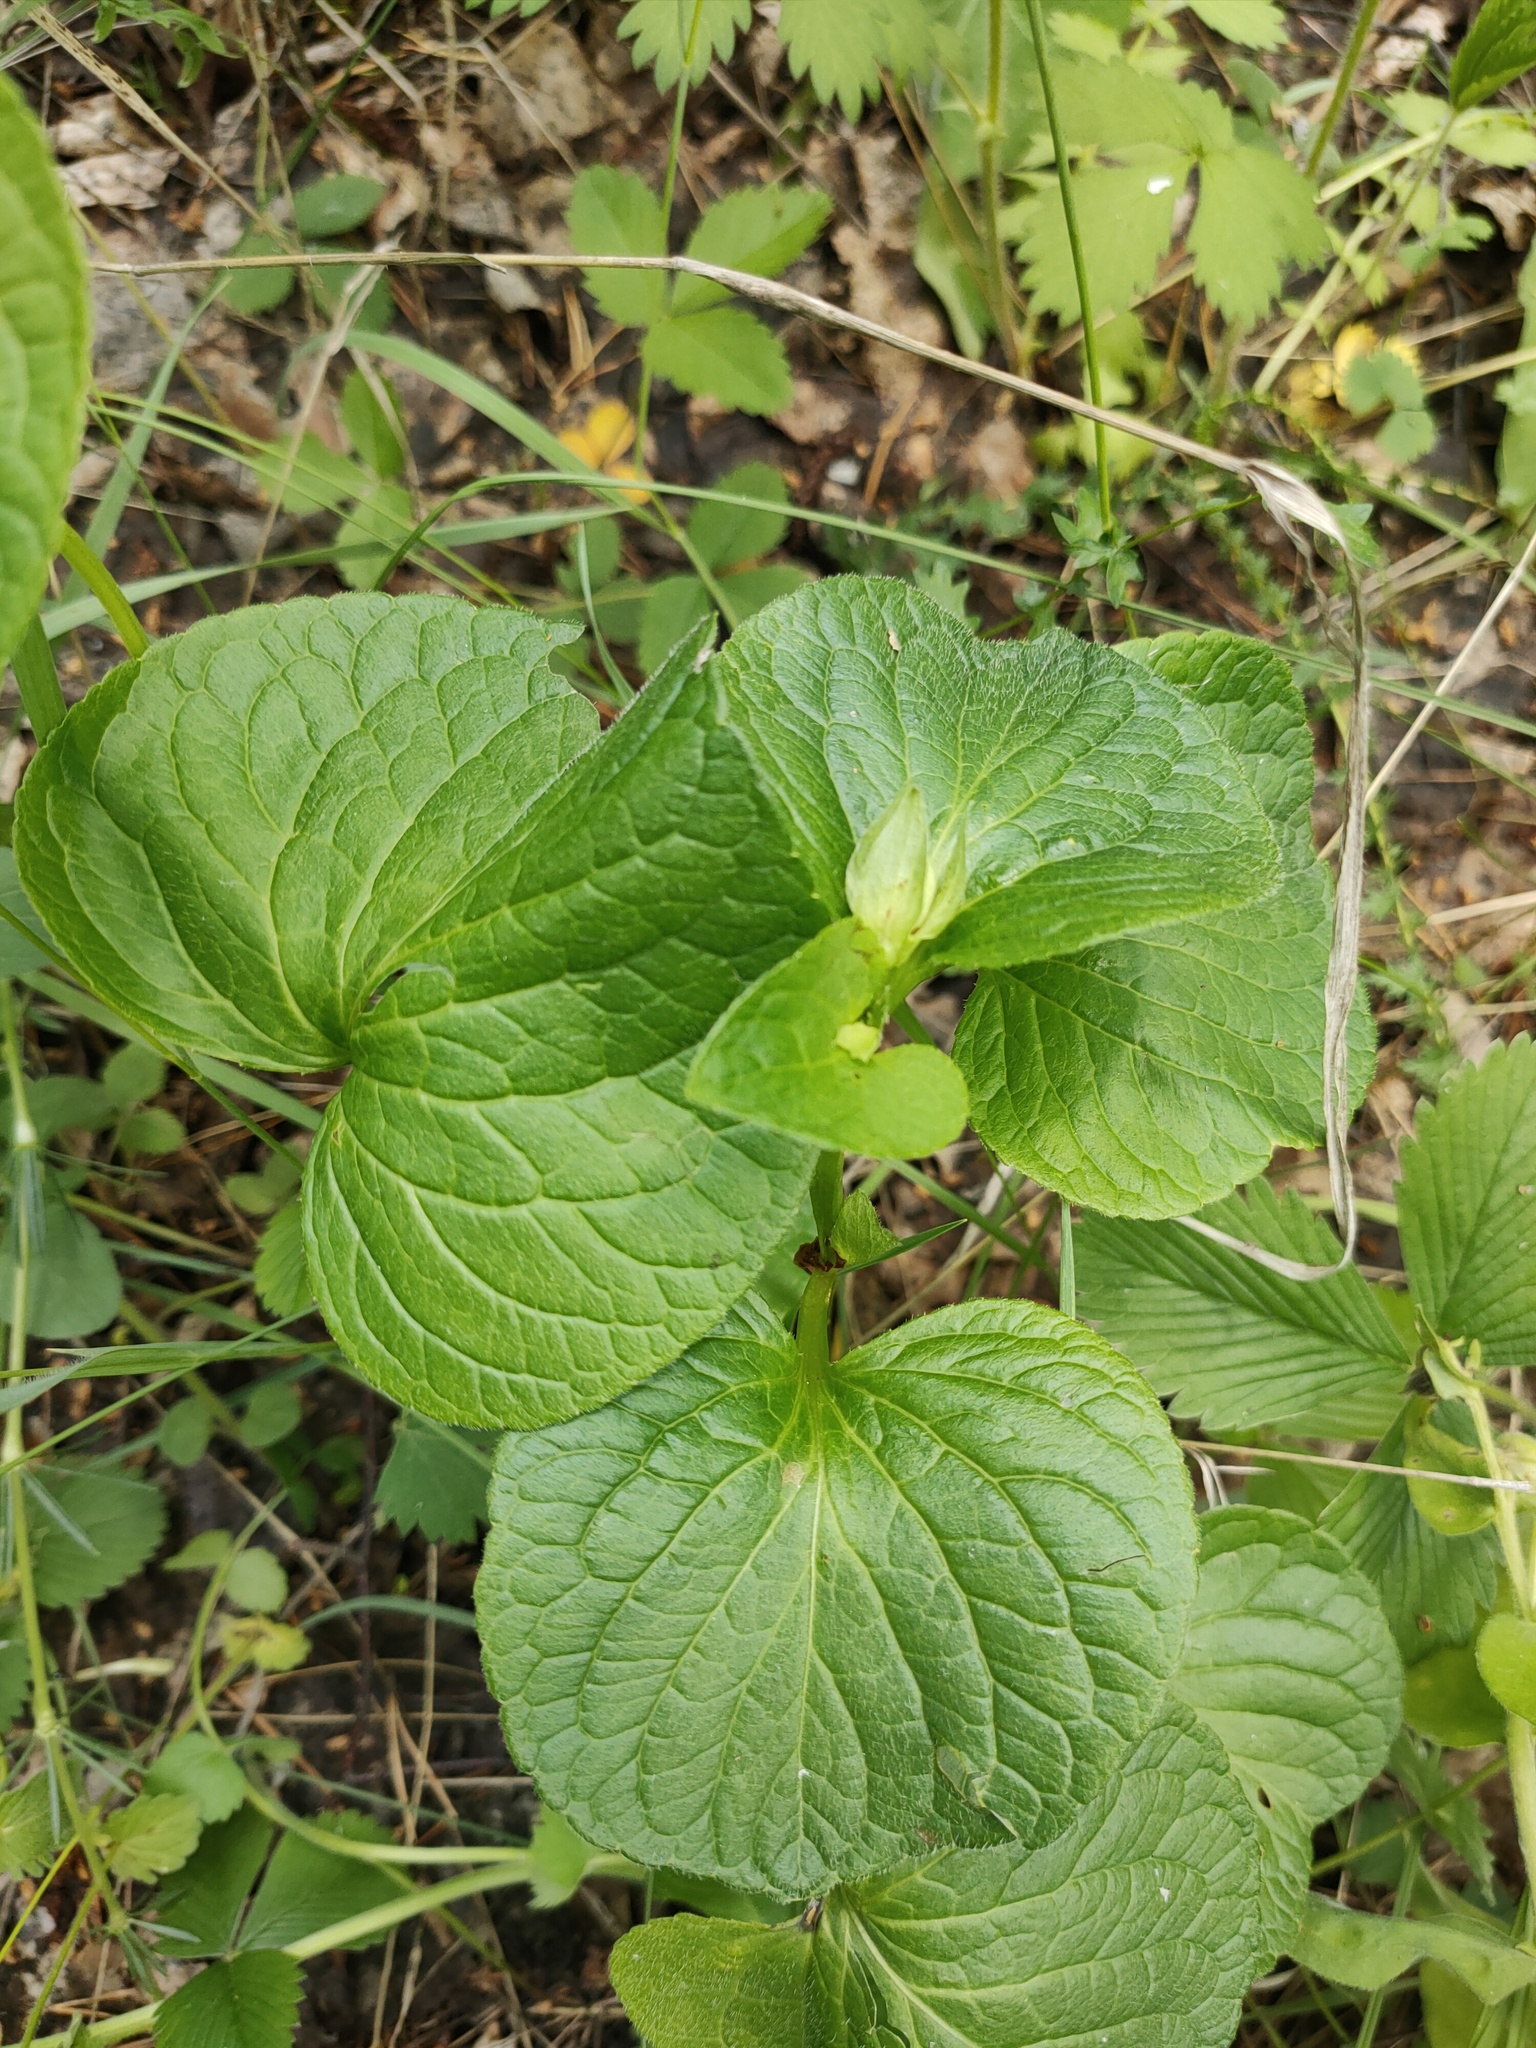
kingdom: Plantae
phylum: Tracheophyta
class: Magnoliopsida
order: Malpighiales
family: Violaceae
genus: Viola
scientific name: Viola mirabilis
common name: Wonder violet
